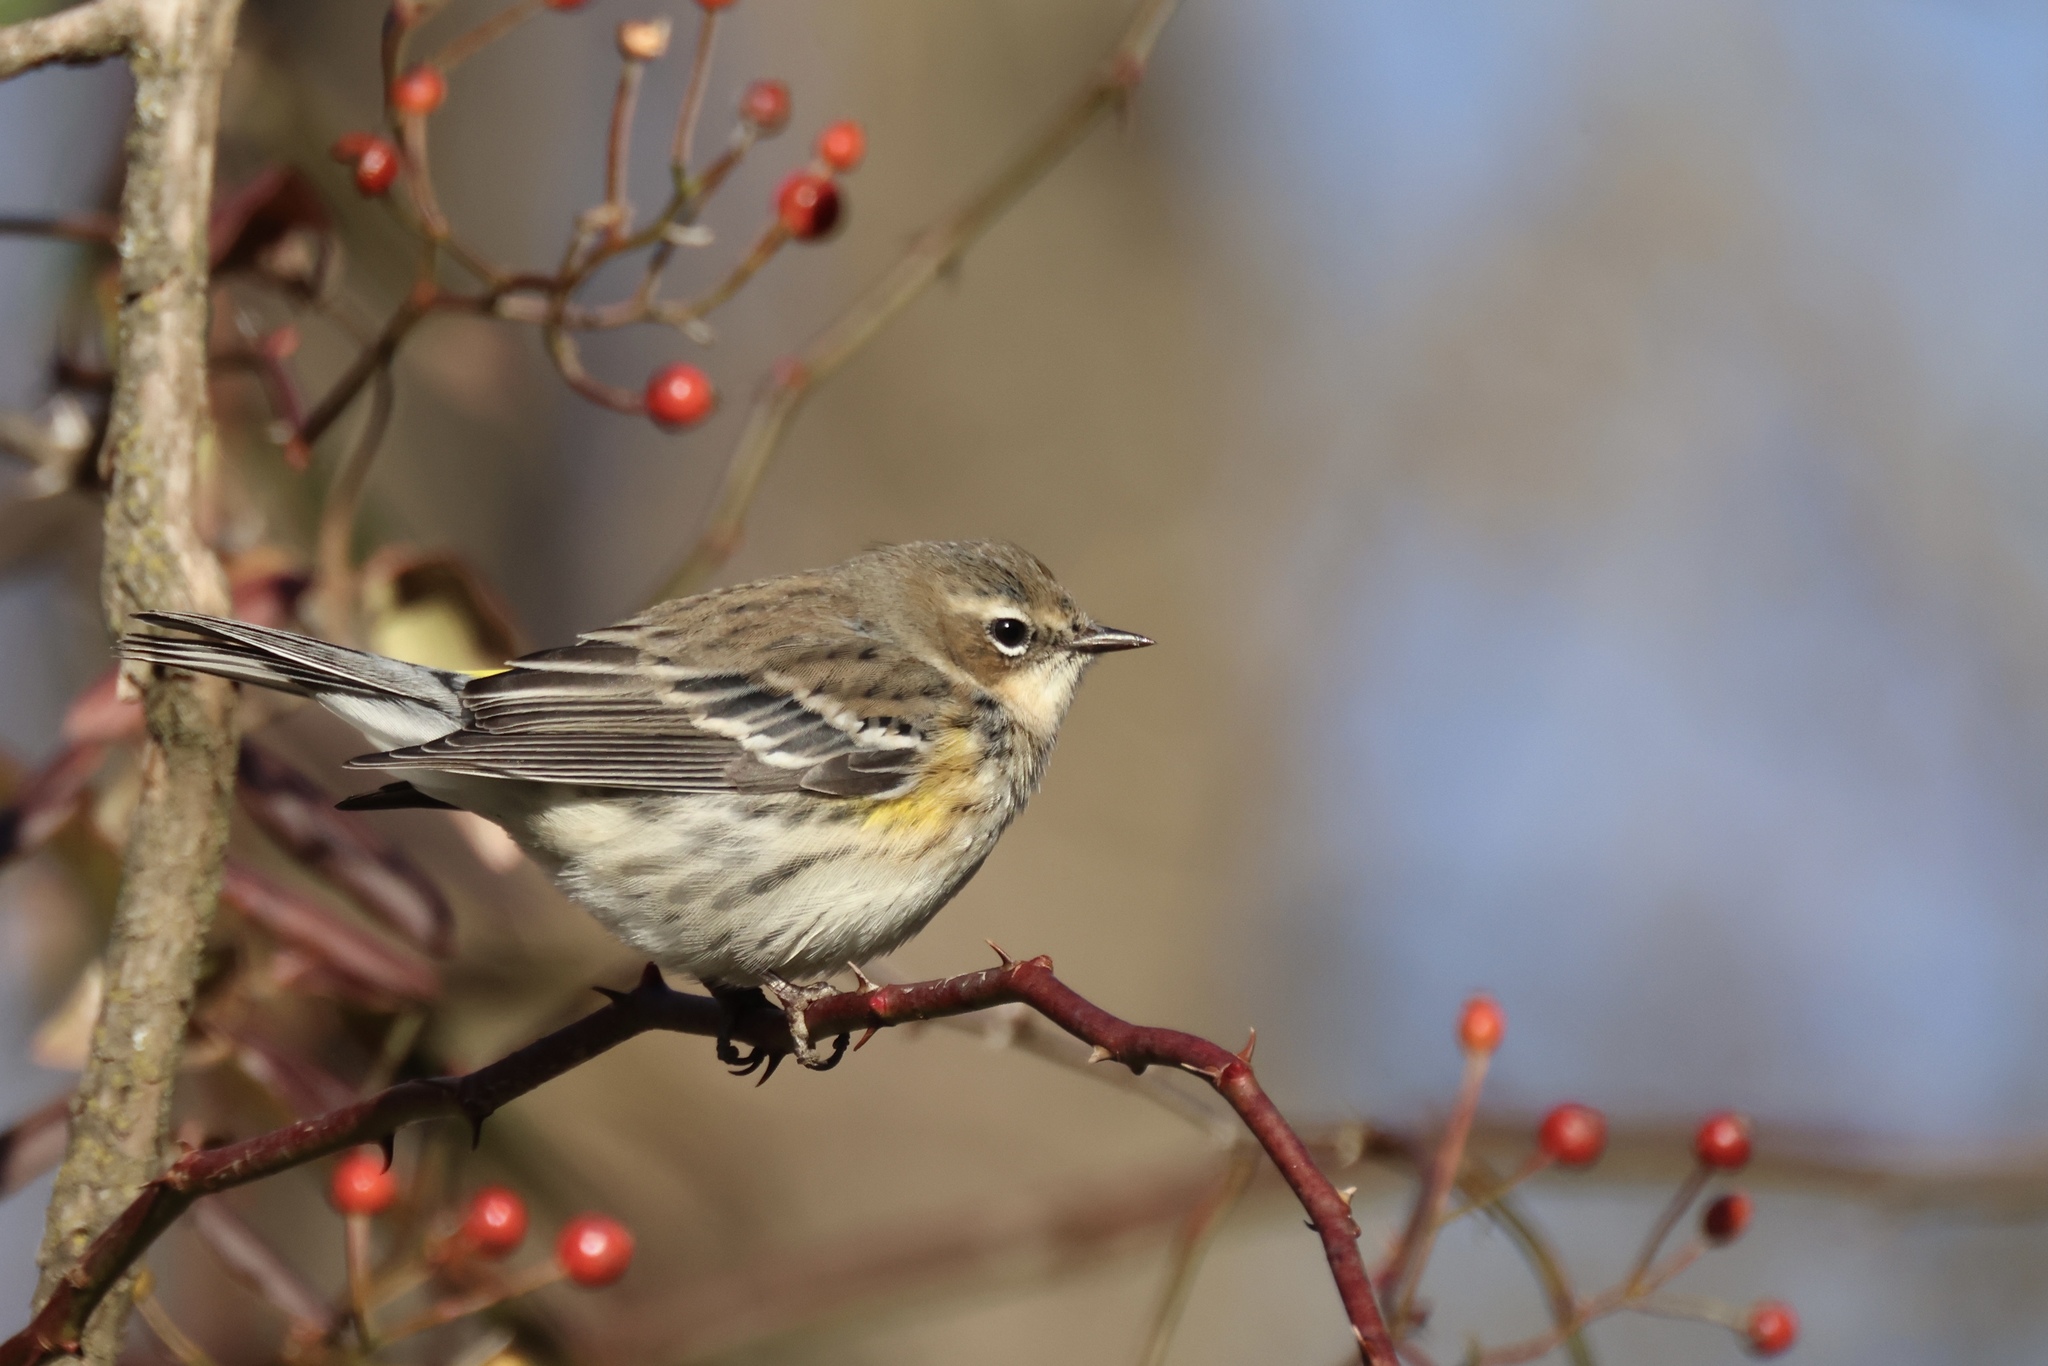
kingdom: Animalia
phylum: Chordata
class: Aves
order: Passeriformes
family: Parulidae
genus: Setophaga
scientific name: Setophaga coronata
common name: Myrtle warbler
